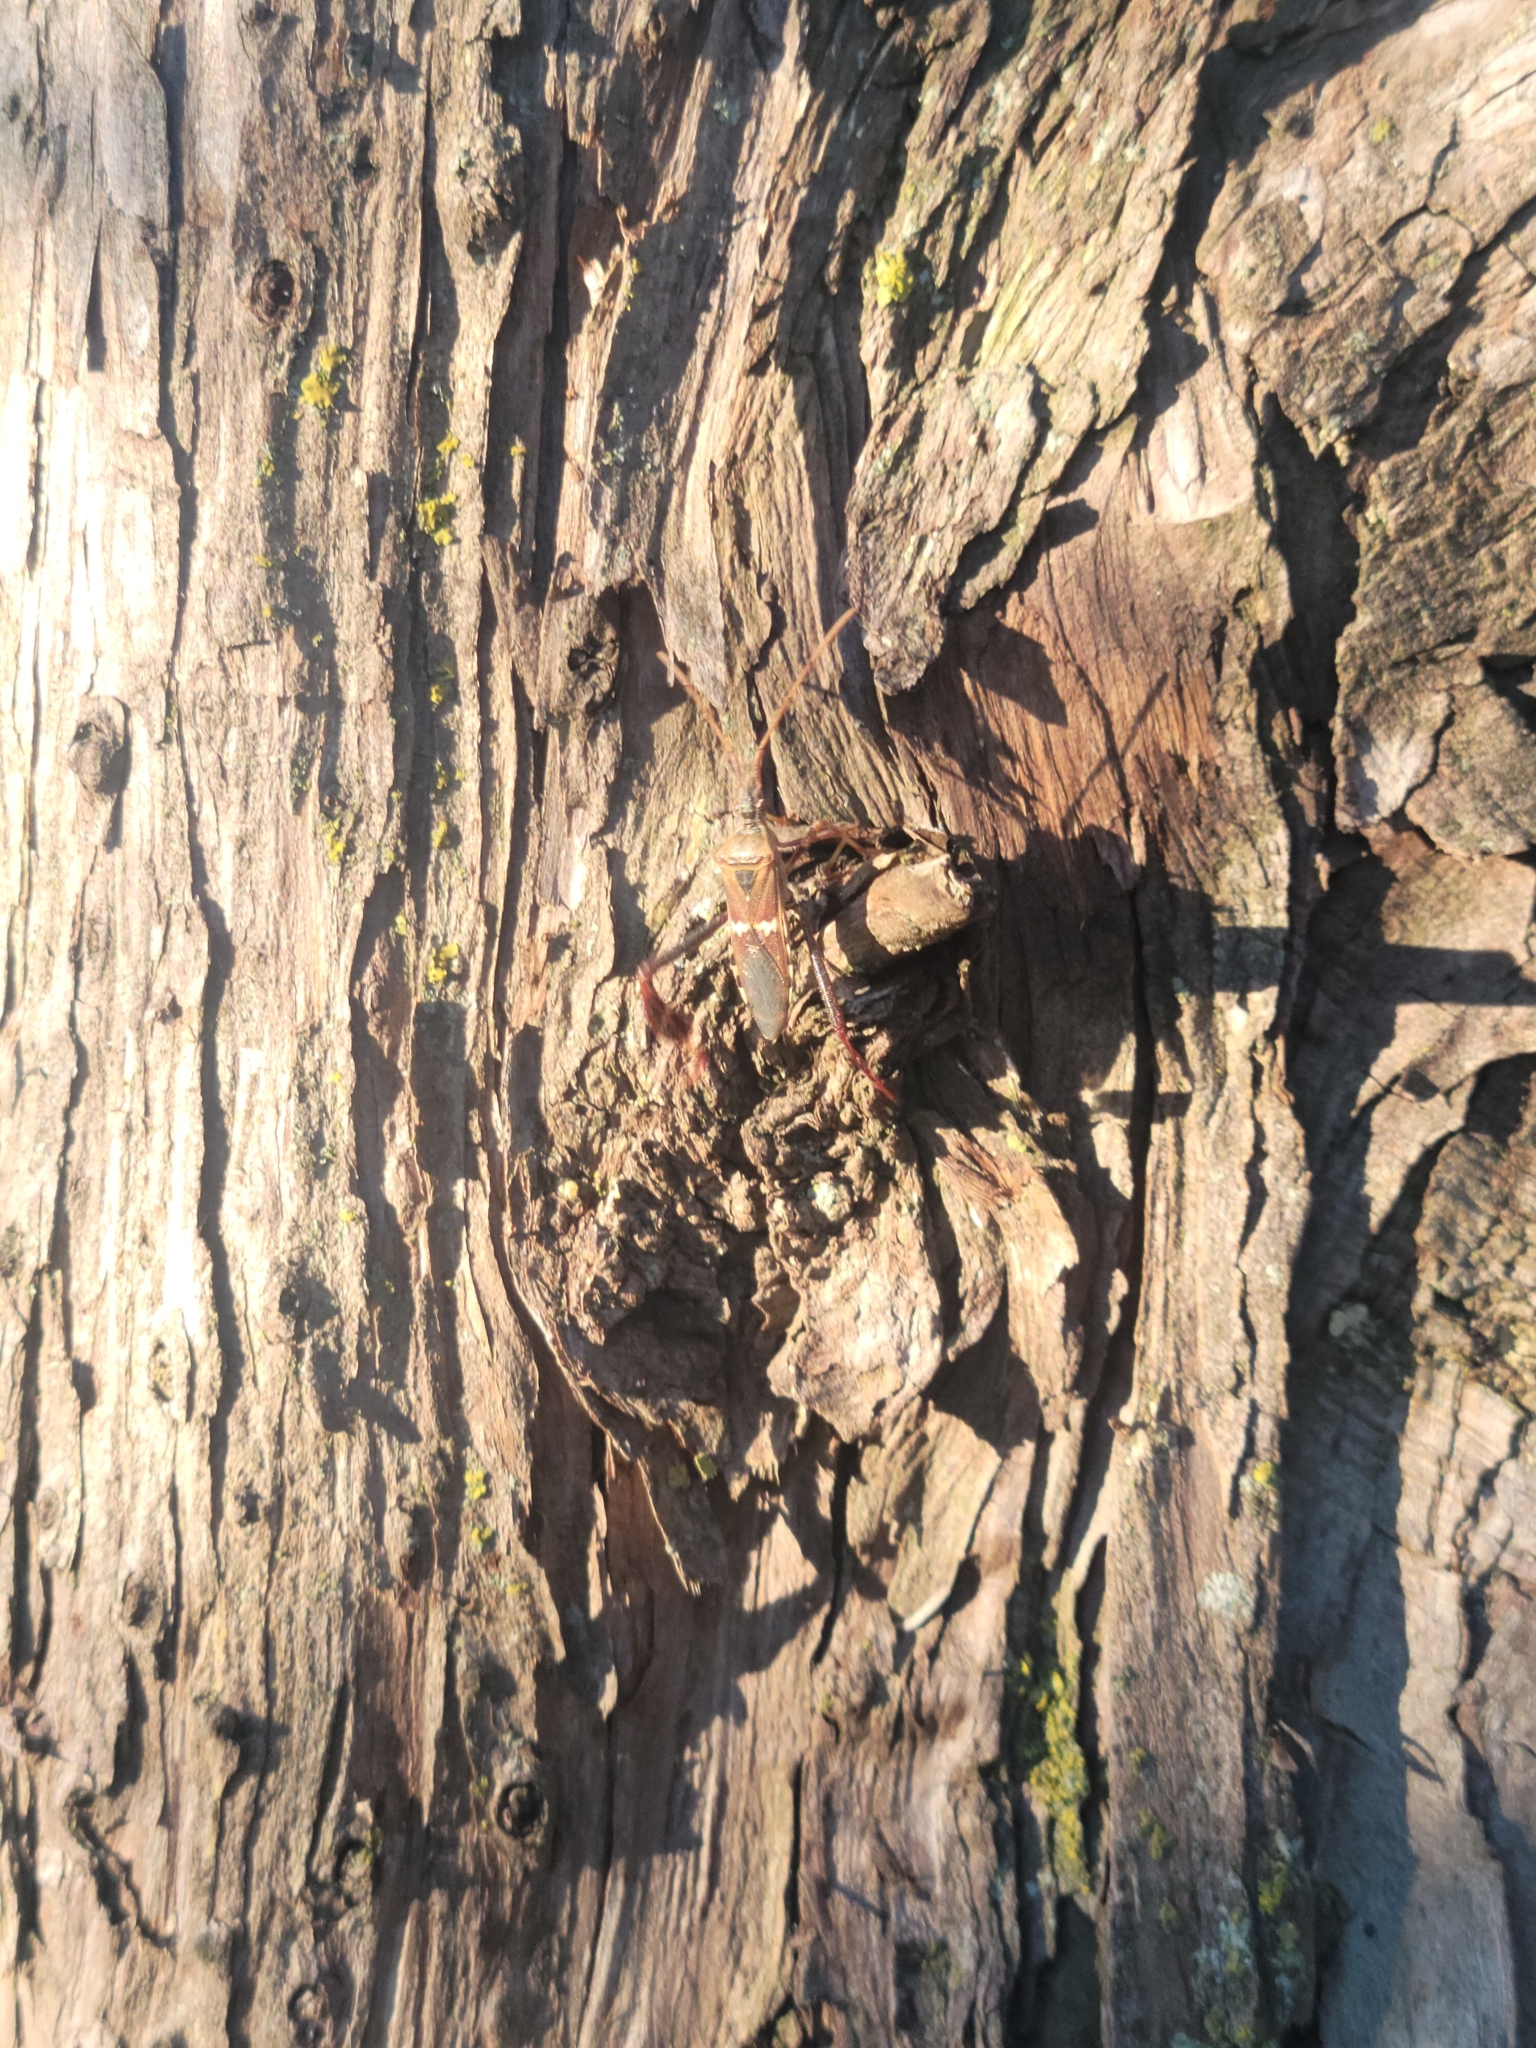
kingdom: Animalia
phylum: Arthropoda
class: Insecta
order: Hemiptera
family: Coreidae
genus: Leptoglossus
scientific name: Leptoglossus clypealis
